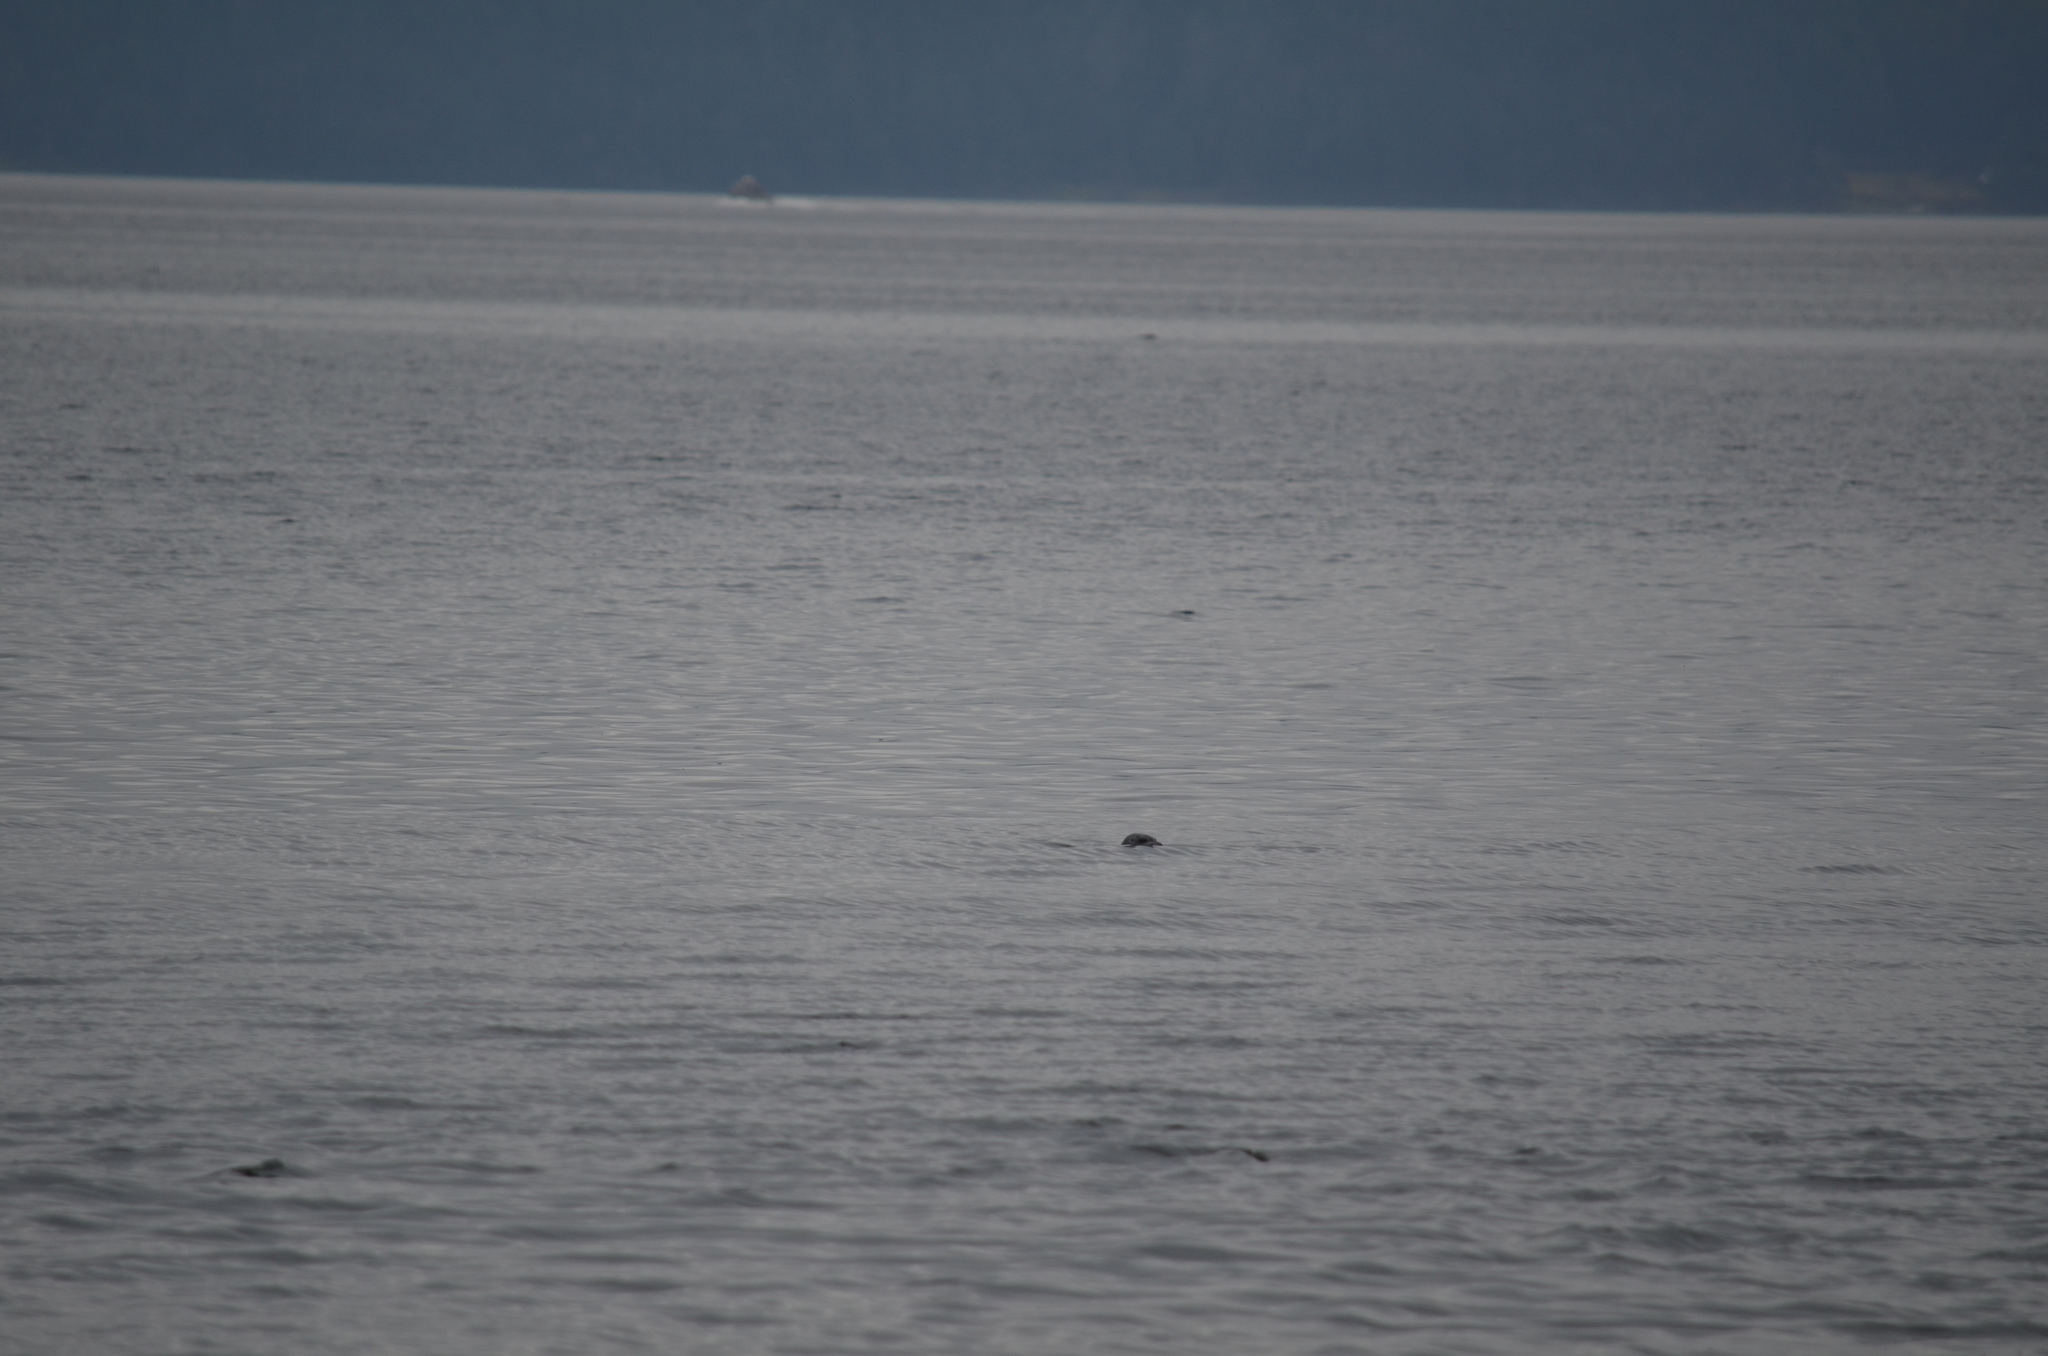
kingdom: Animalia
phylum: Chordata
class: Mammalia
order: Carnivora
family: Phocidae
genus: Phoca
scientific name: Phoca vitulina
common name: Harbor seal
